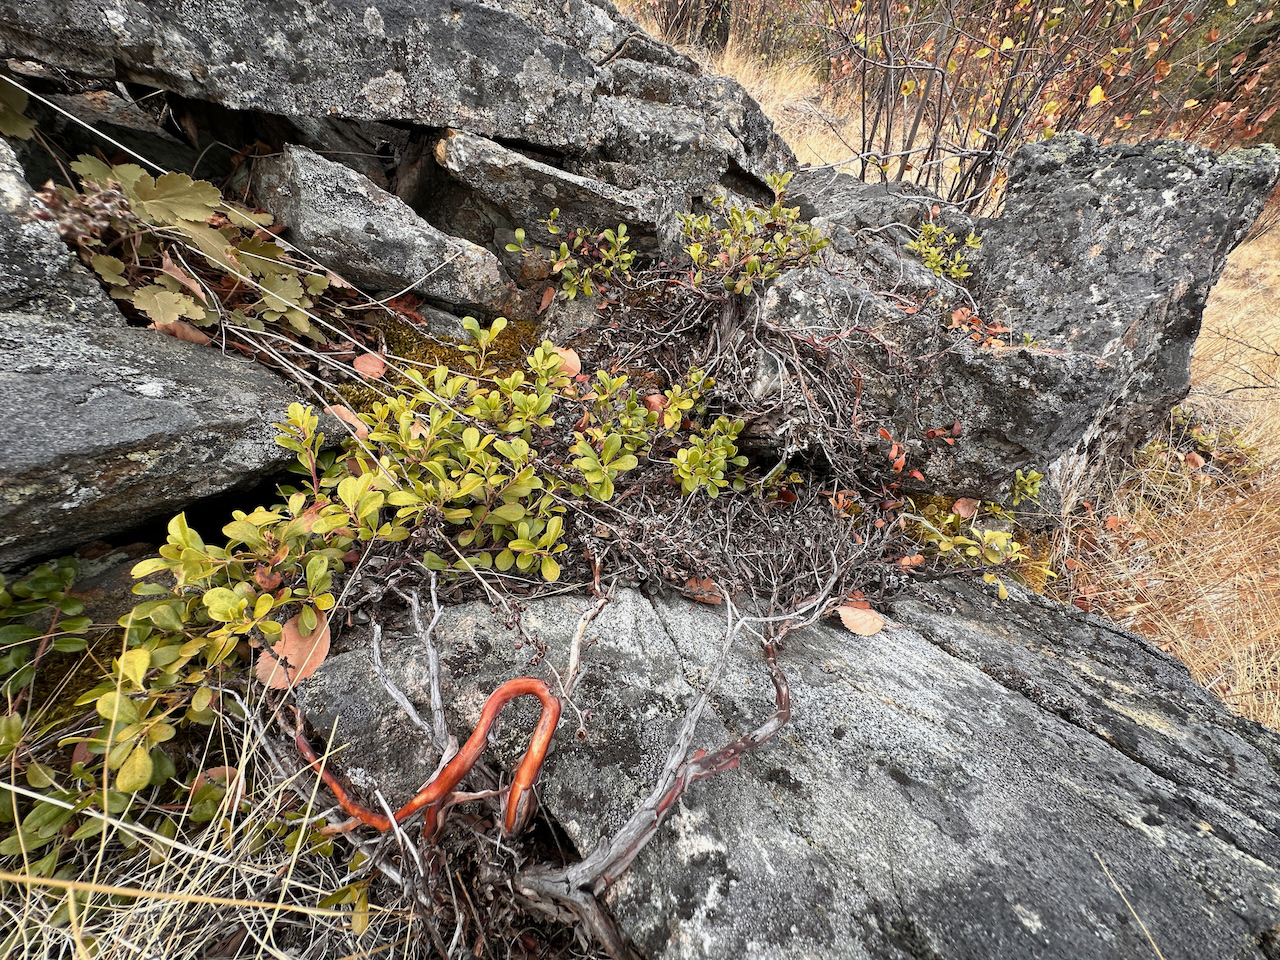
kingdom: Plantae
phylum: Tracheophyta
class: Magnoliopsida
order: Ericales
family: Ericaceae
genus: Arctostaphylos
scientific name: Arctostaphylos uva-ursi
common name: Bearberry
